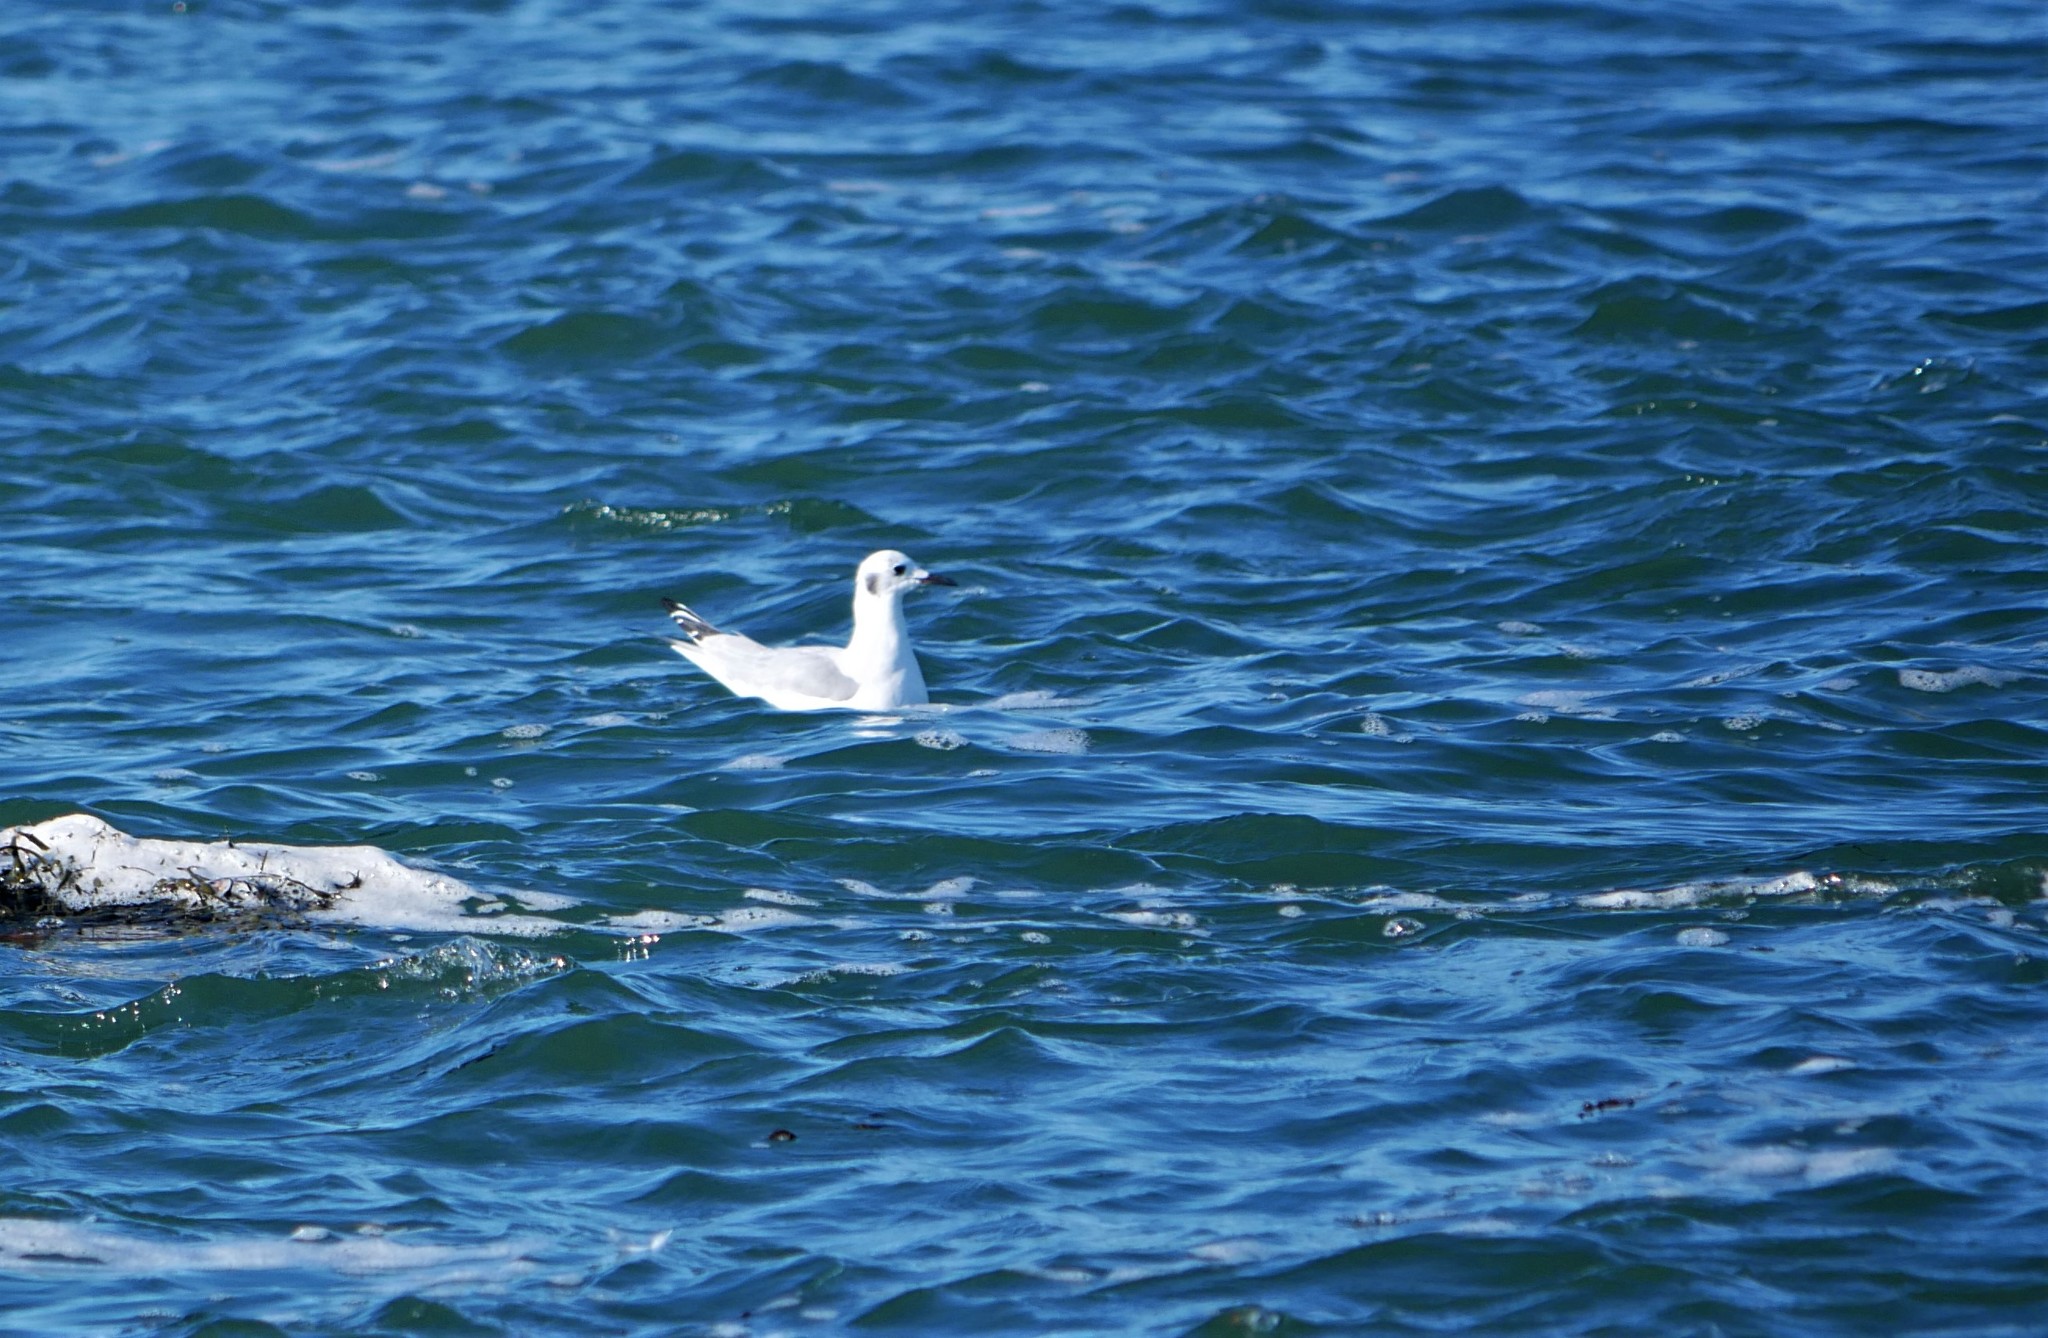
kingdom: Animalia
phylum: Chordata
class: Aves
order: Charadriiformes
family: Laridae
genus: Chroicocephalus
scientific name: Chroicocephalus philadelphia
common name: Bonaparte's gull
